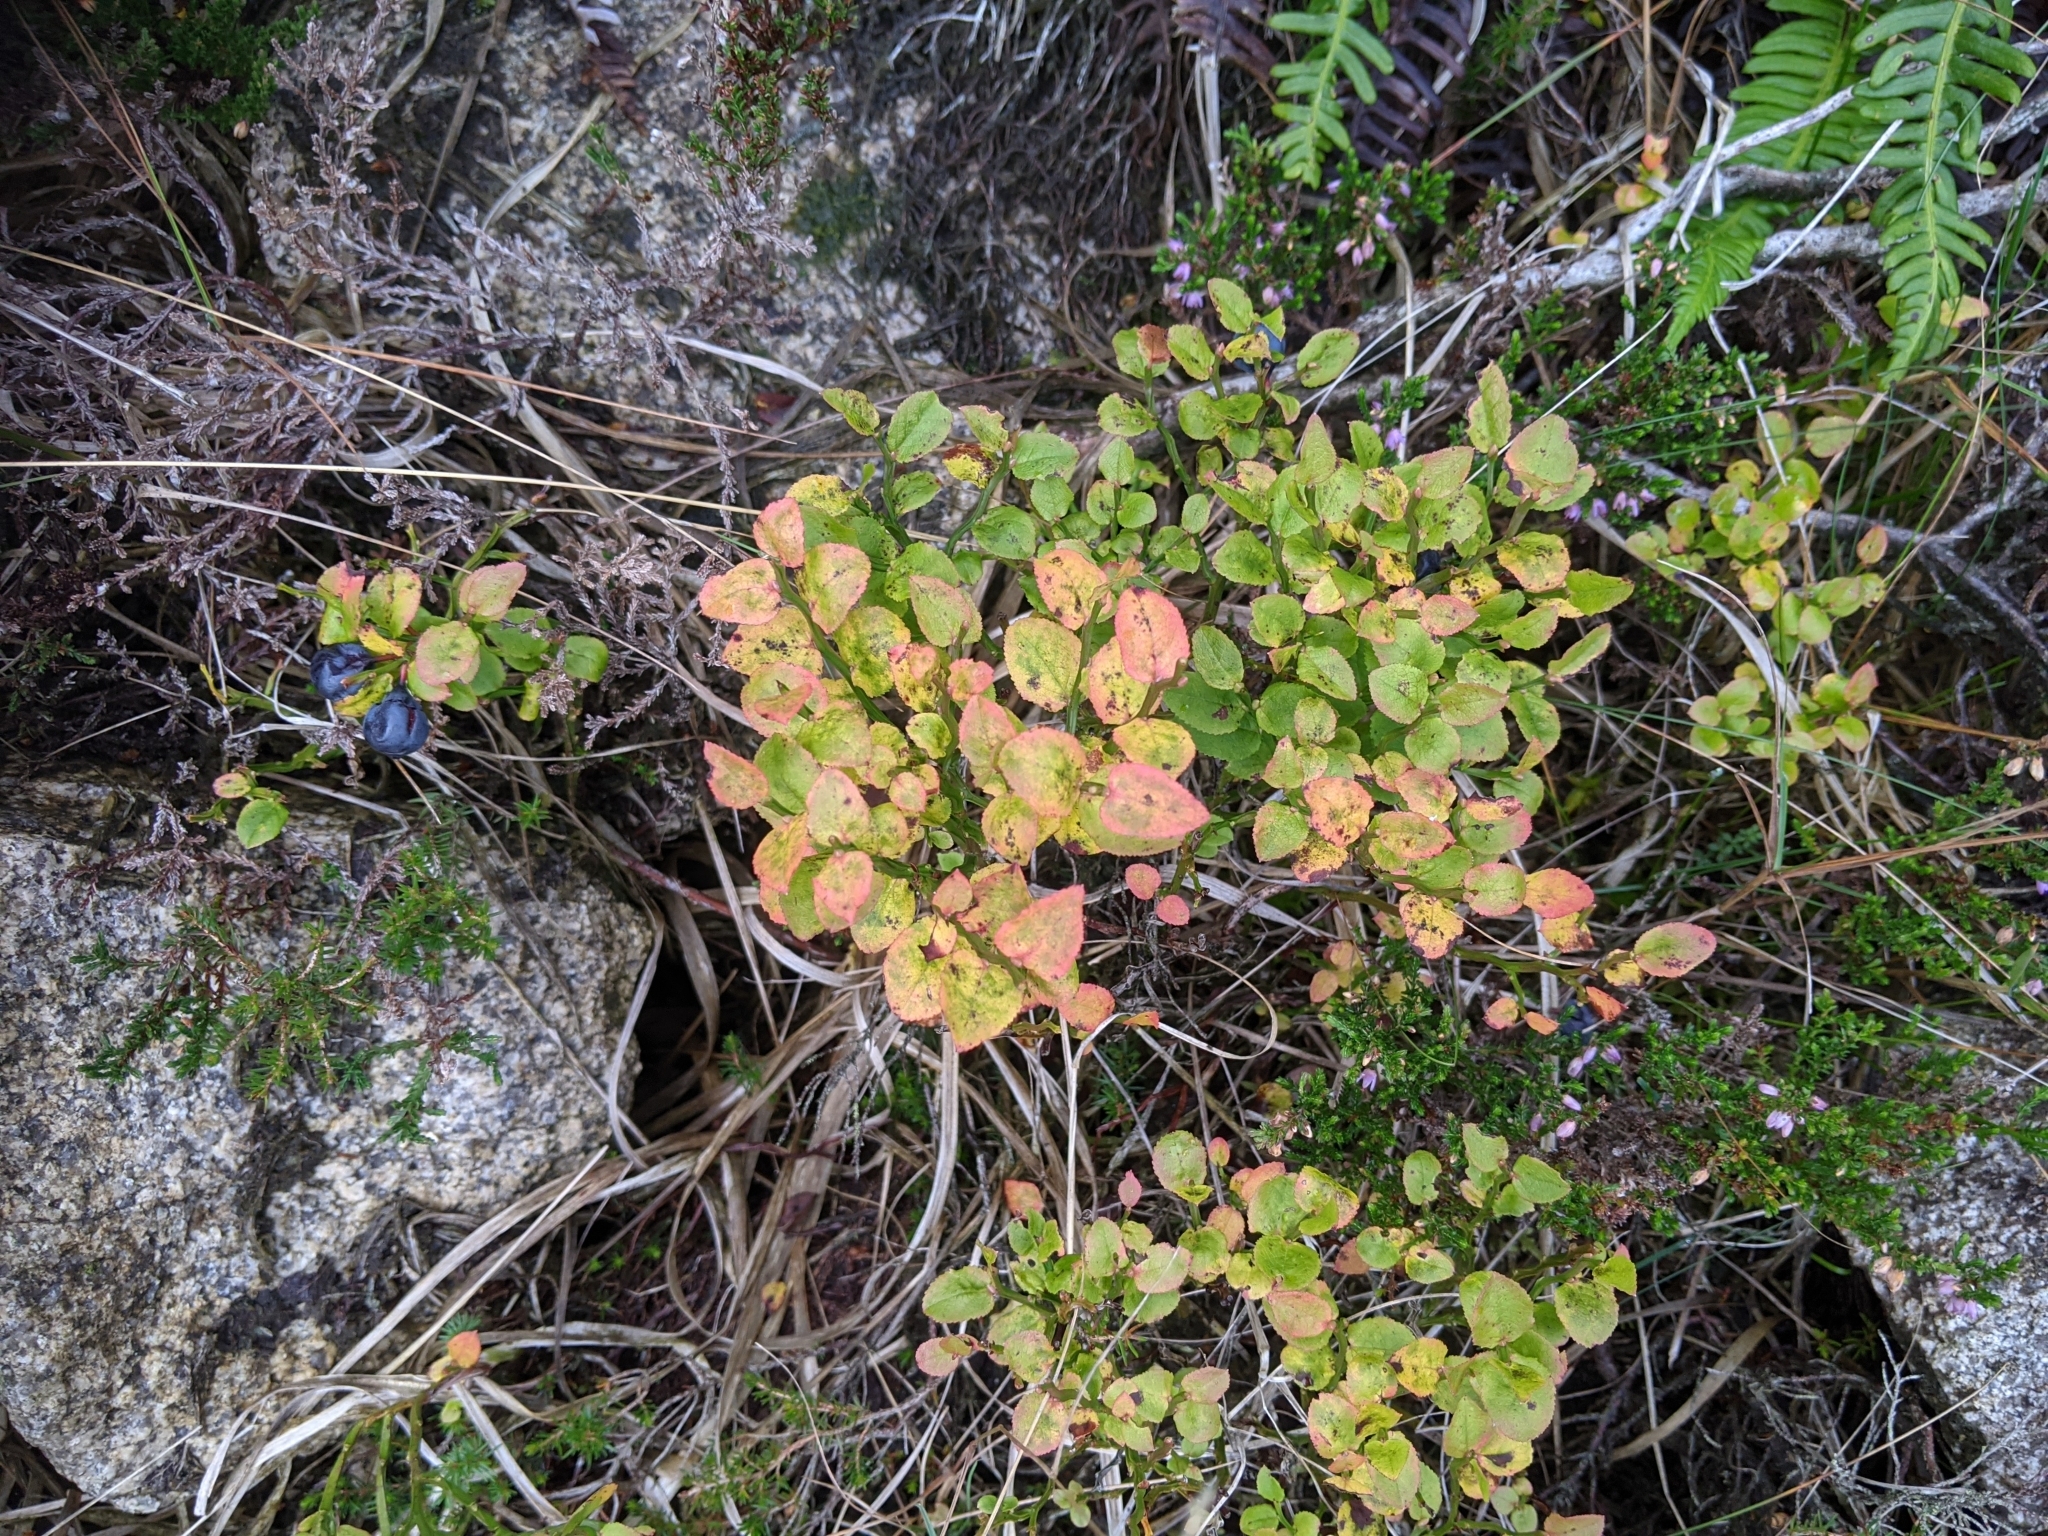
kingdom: Plantae
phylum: Tracheophyta
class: Magnoliopsida
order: Ericales
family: Ericaceae
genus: Vaccinium
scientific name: Vaccinium myrtillus
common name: Bilberry
